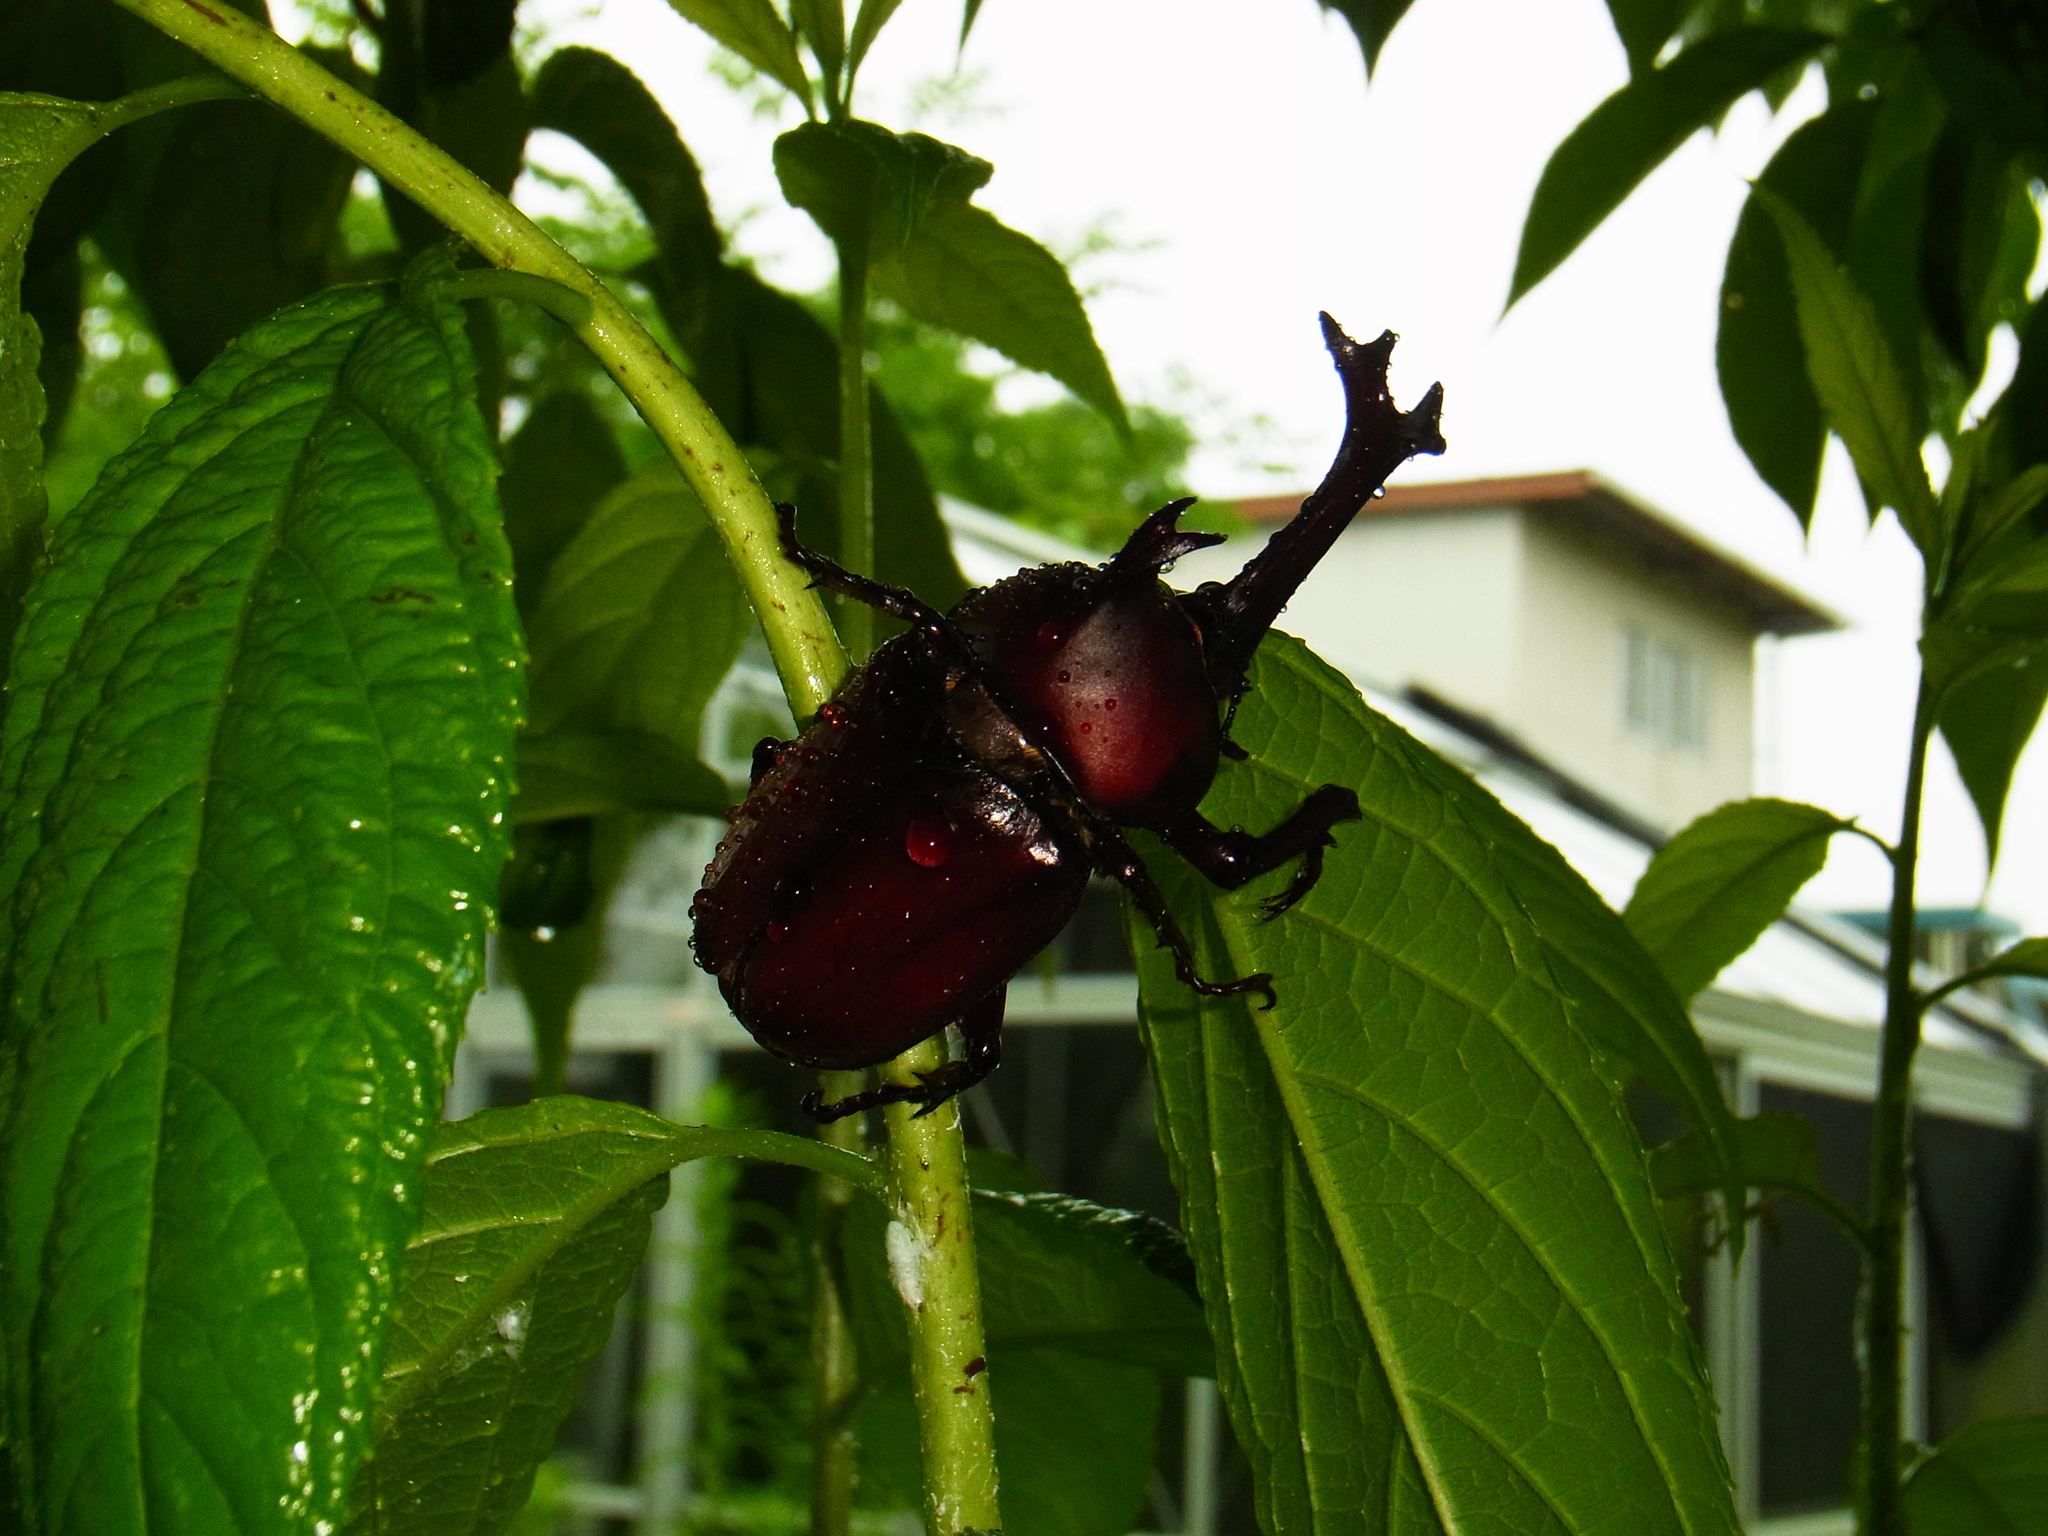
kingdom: Animalia
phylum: Arthropoda
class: Insecta
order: Coleoptera
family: Scarabaeidae
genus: Trypoxylus
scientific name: Trypoxylus dichotomus
